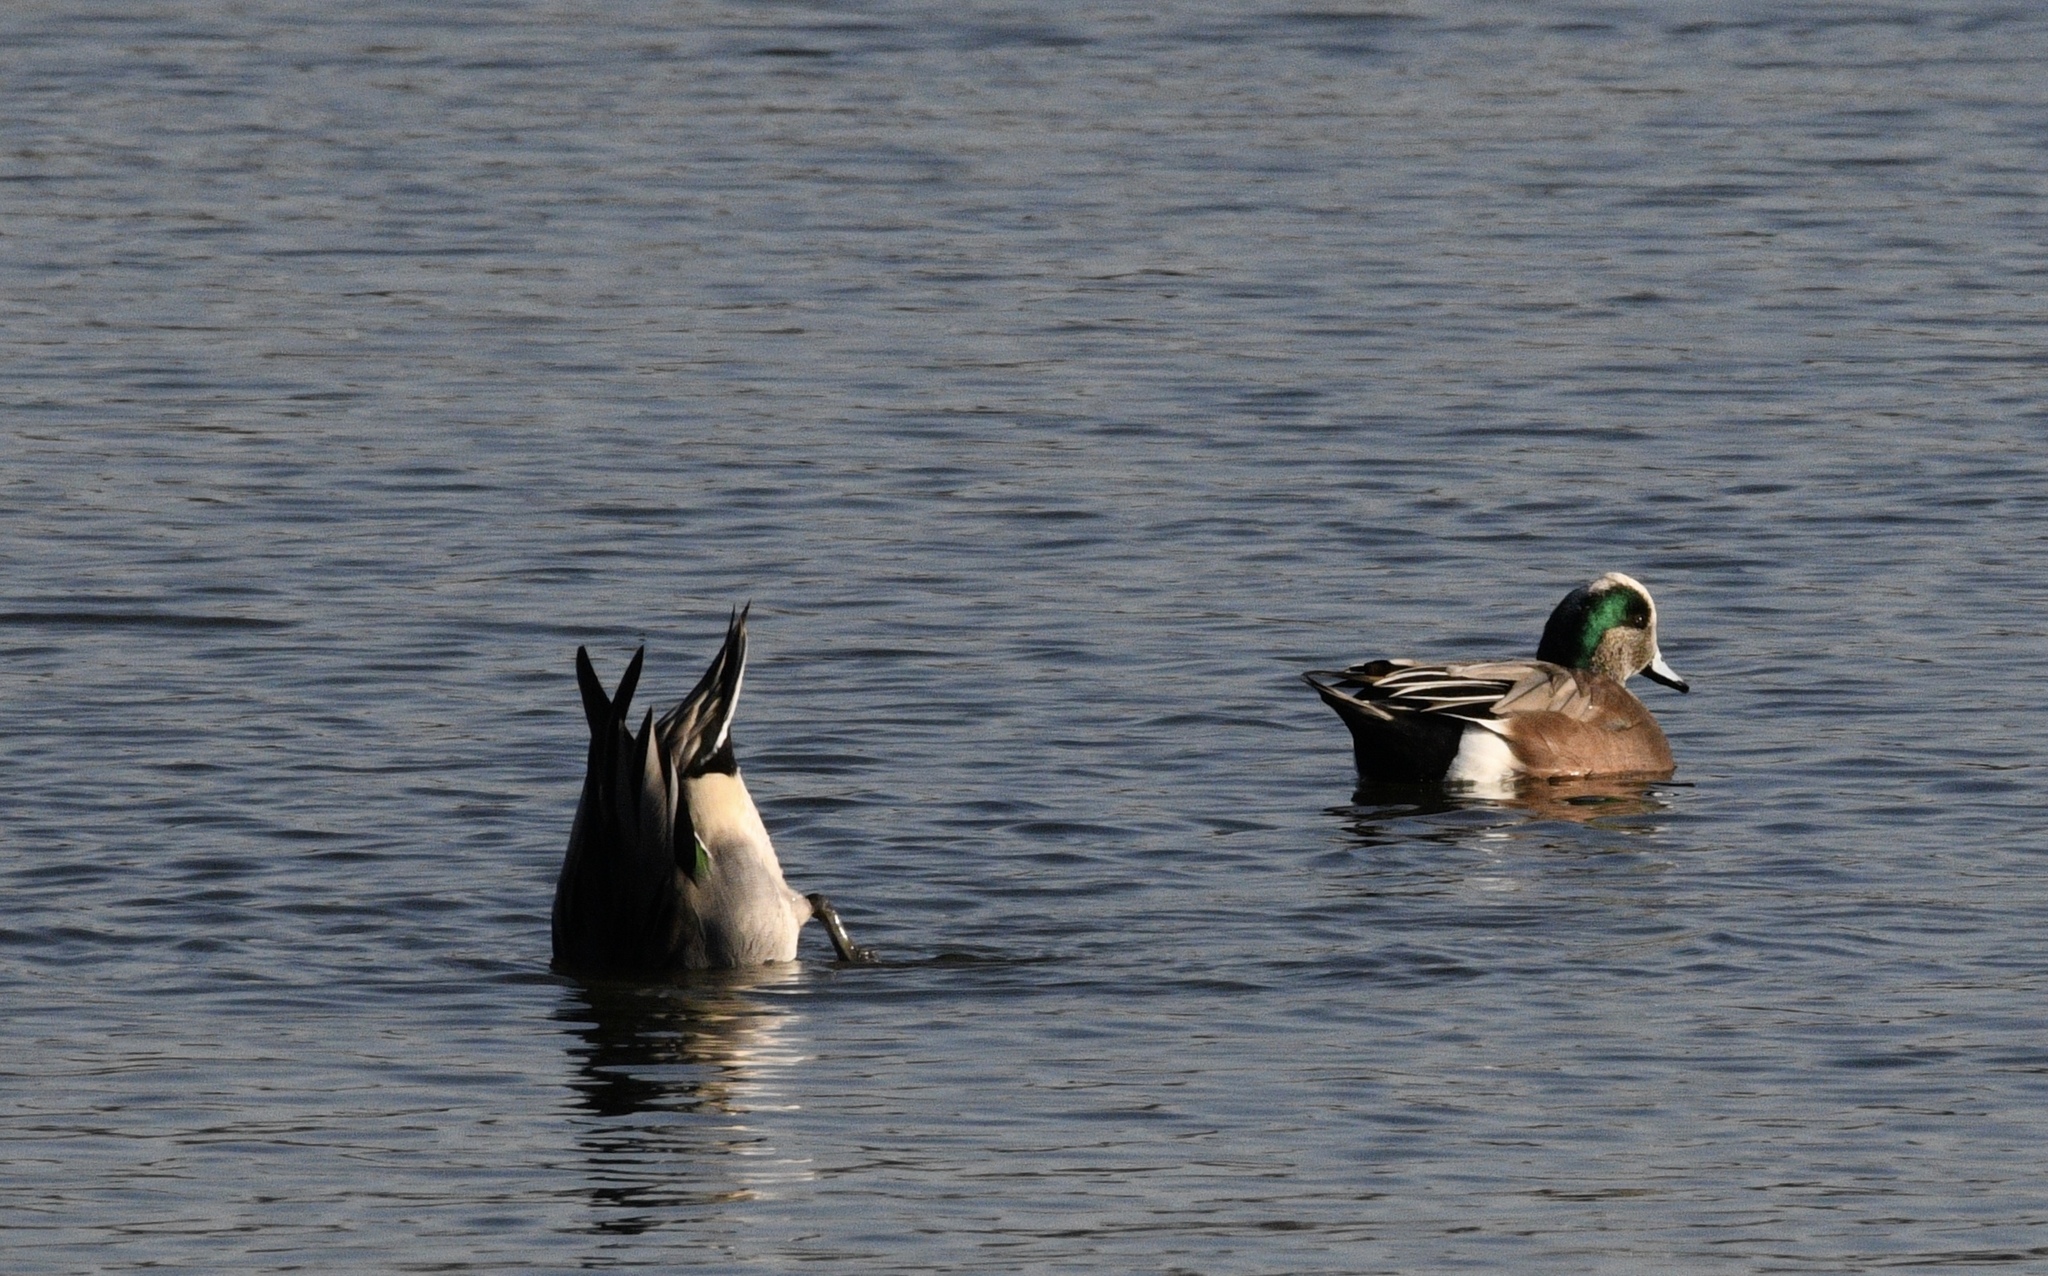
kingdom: Animalia
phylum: Chordata
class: Aves
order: Anseriformes
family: Anatidae
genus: Mareca
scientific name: Mareca americana
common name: American wigeon
